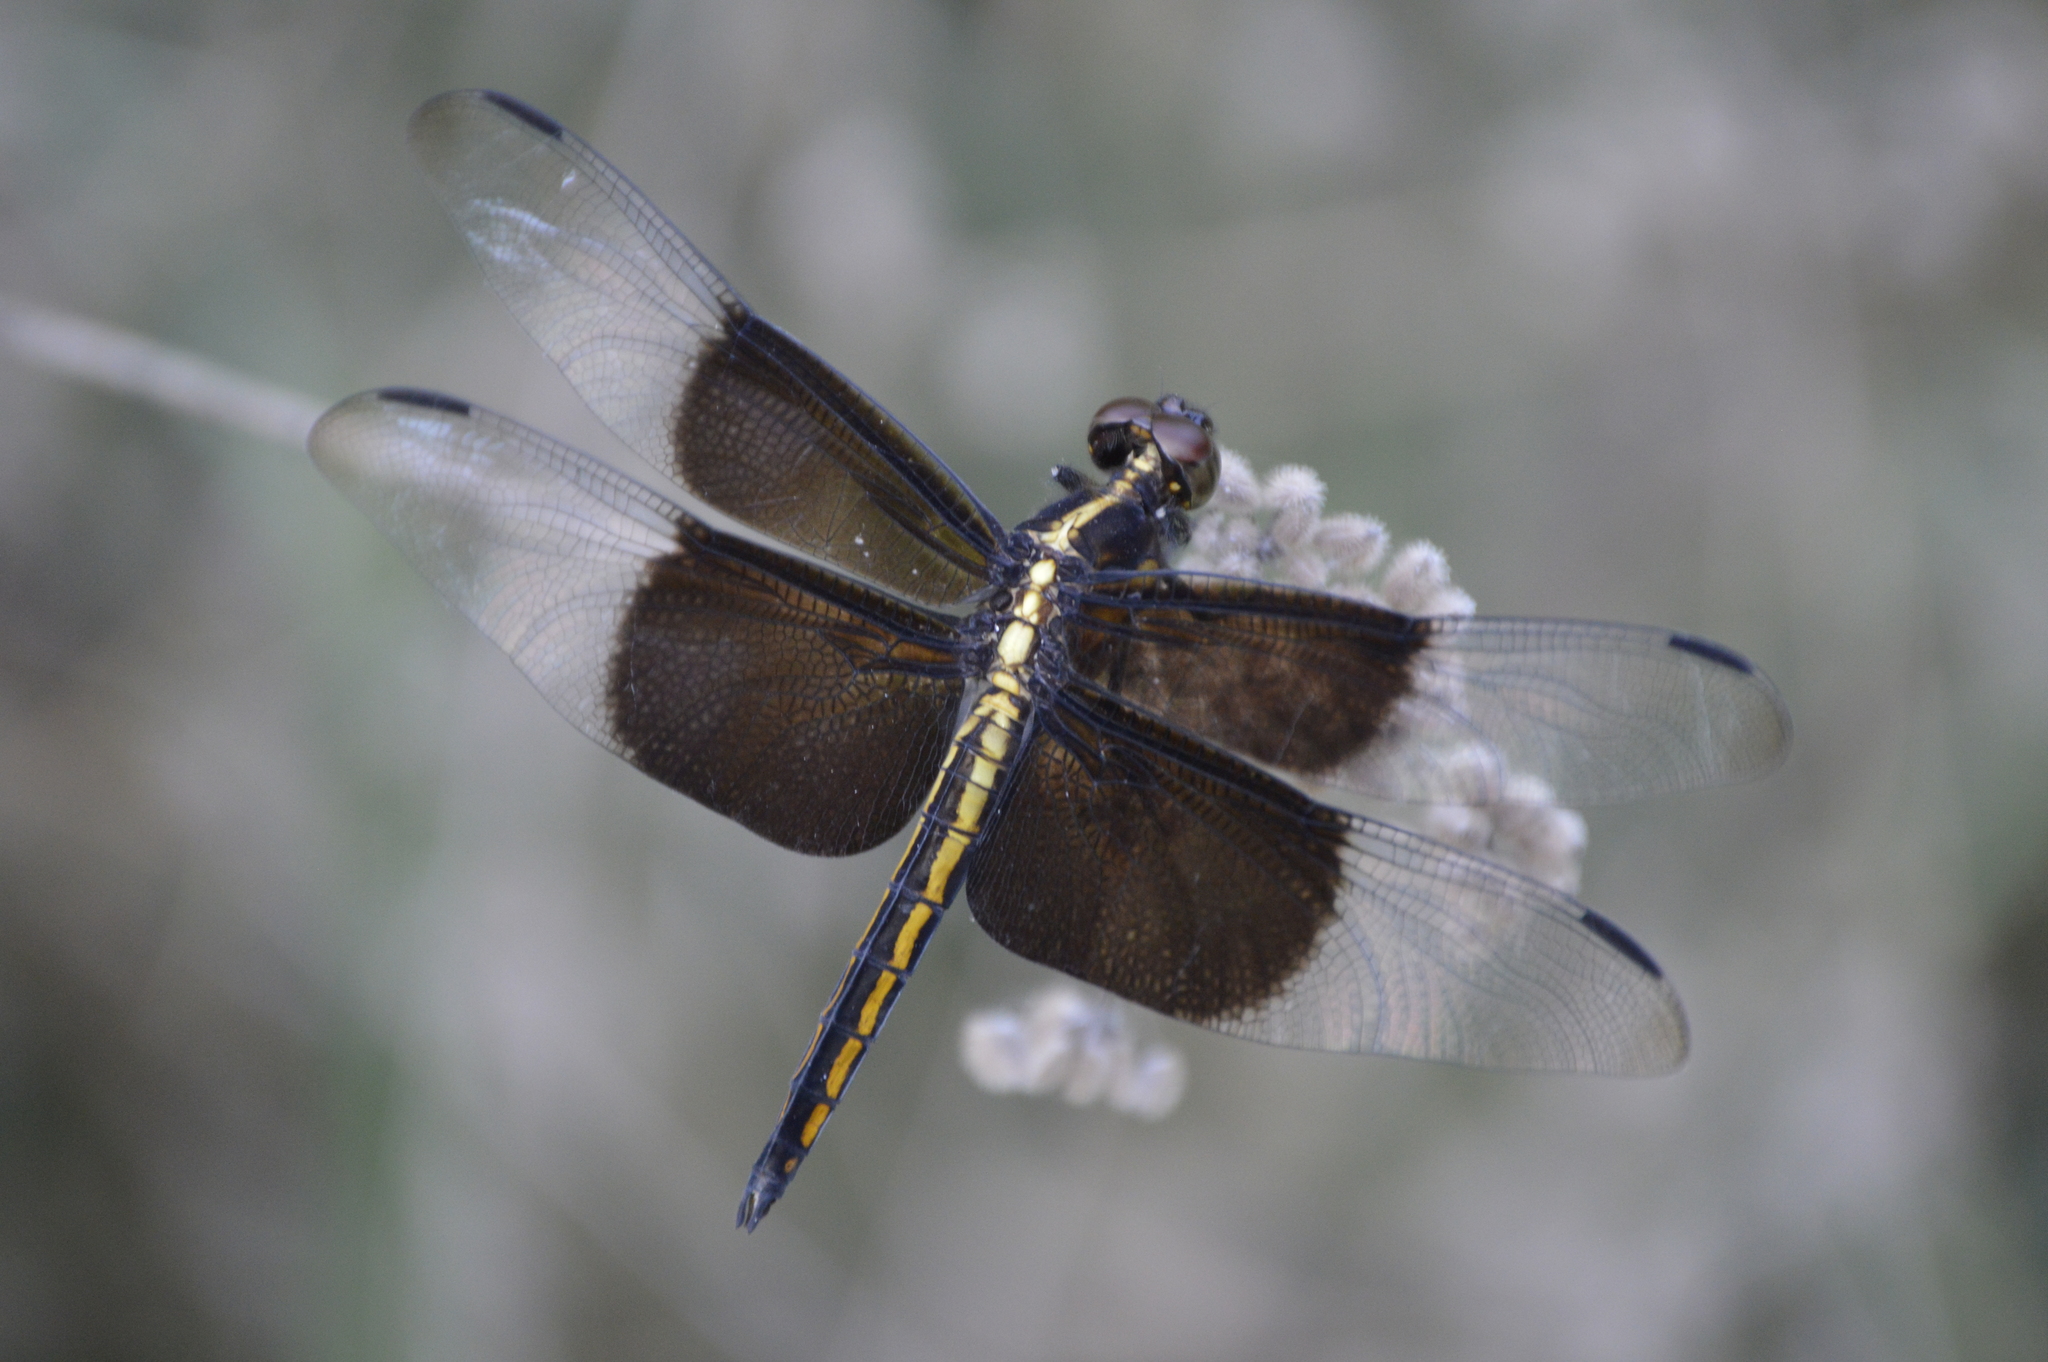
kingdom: Animalia
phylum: Arthropoda
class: Insecta
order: Odonata
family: Libellulidae
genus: Libellula
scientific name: Libellula luctuosa
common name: Widow skimmer
